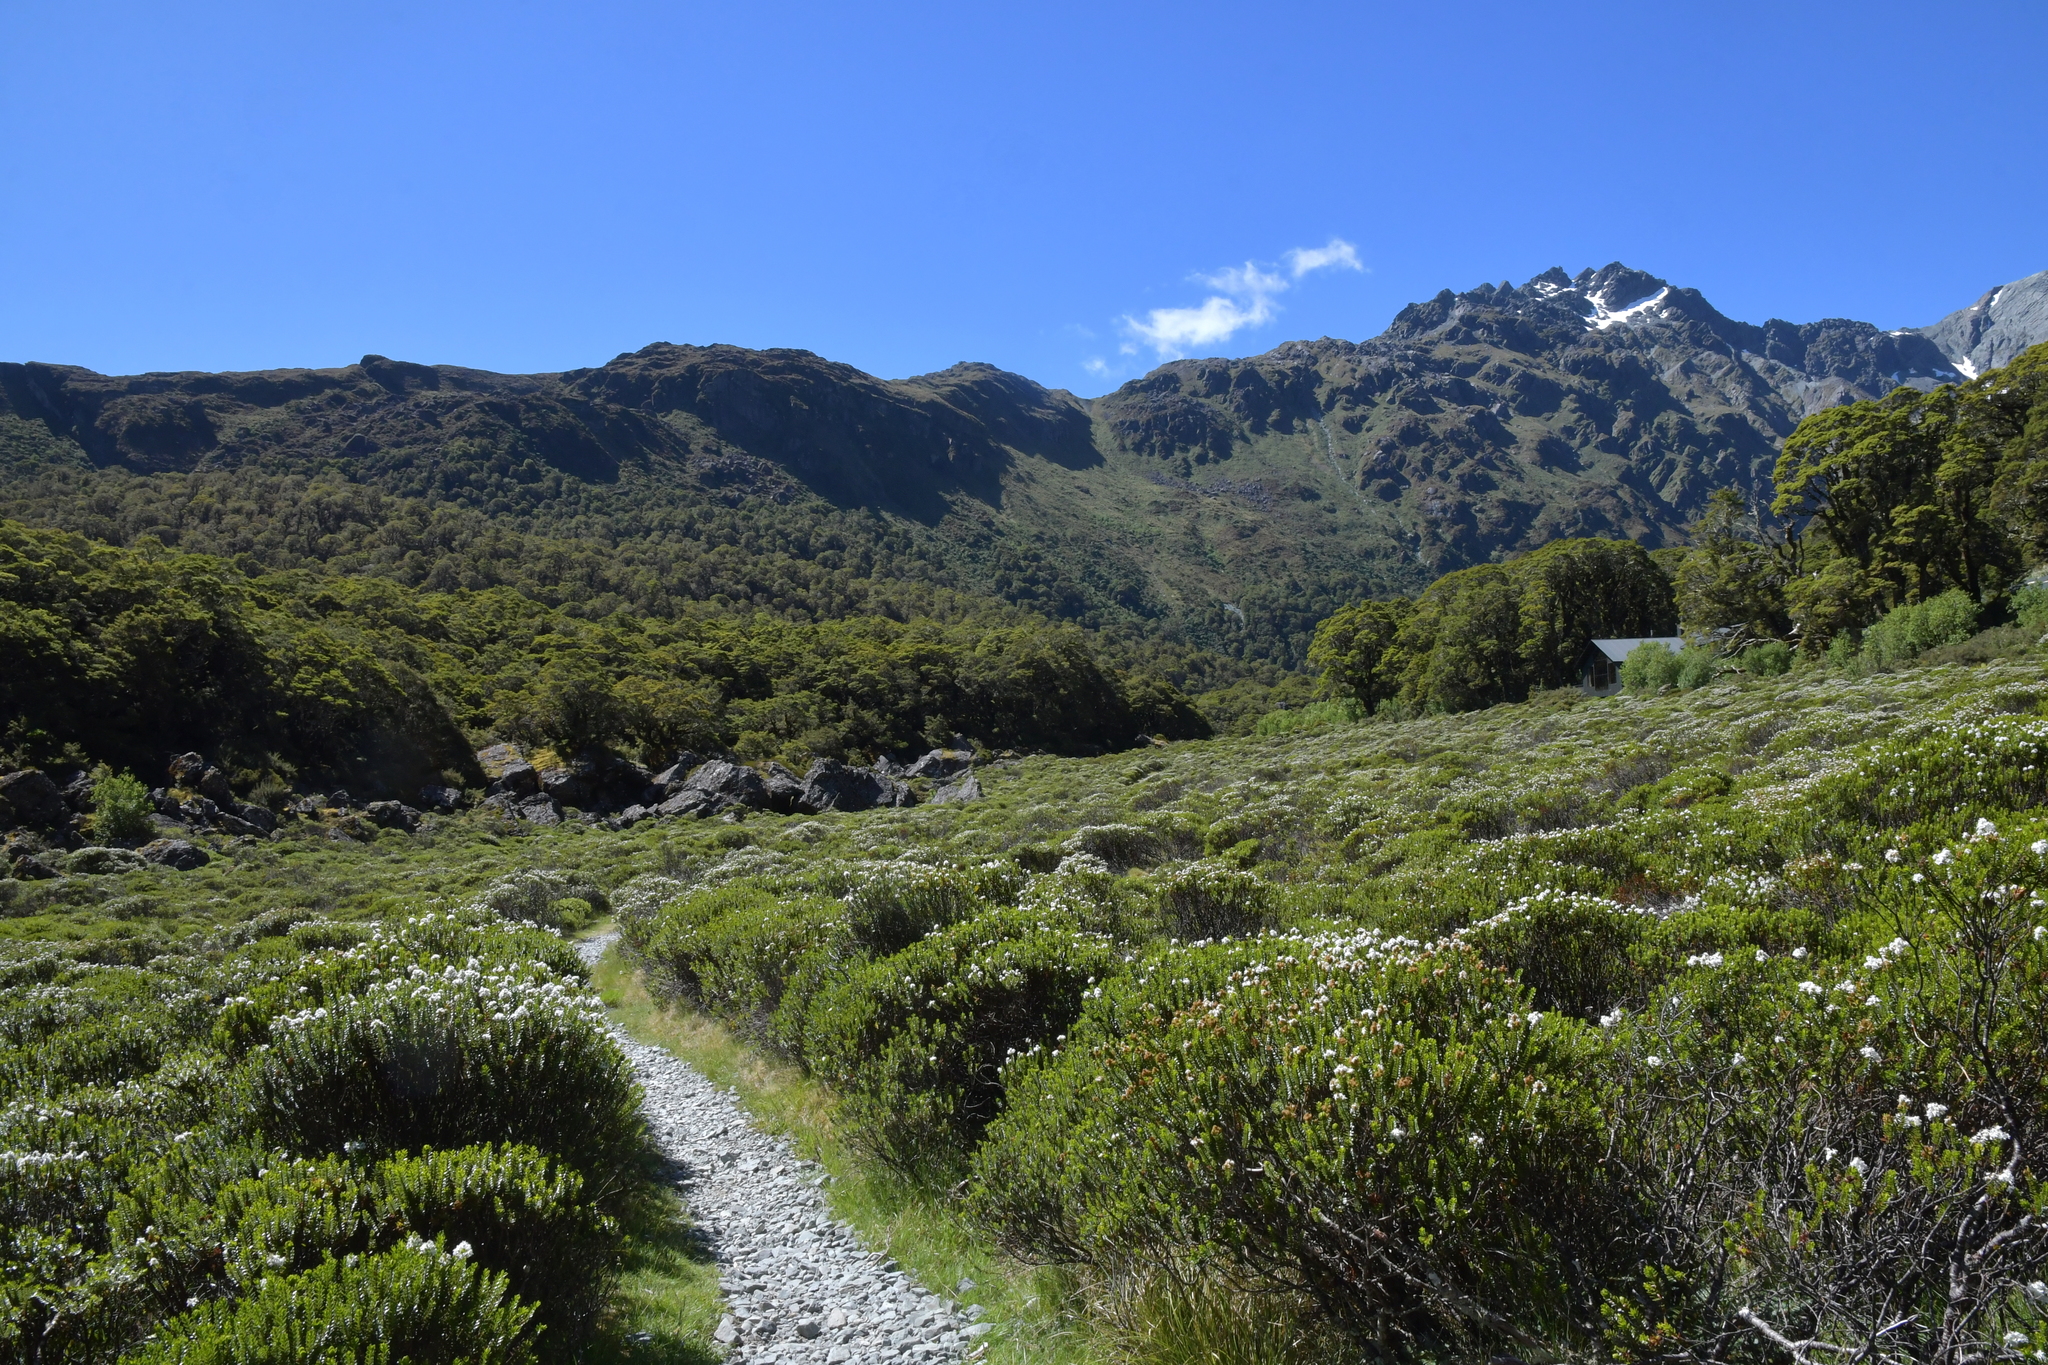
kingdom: Plantae
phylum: Tracheophyta
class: Magnoliopsida
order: Lamiales
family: Plantaginaceae
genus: Veronica
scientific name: Veronica odora
